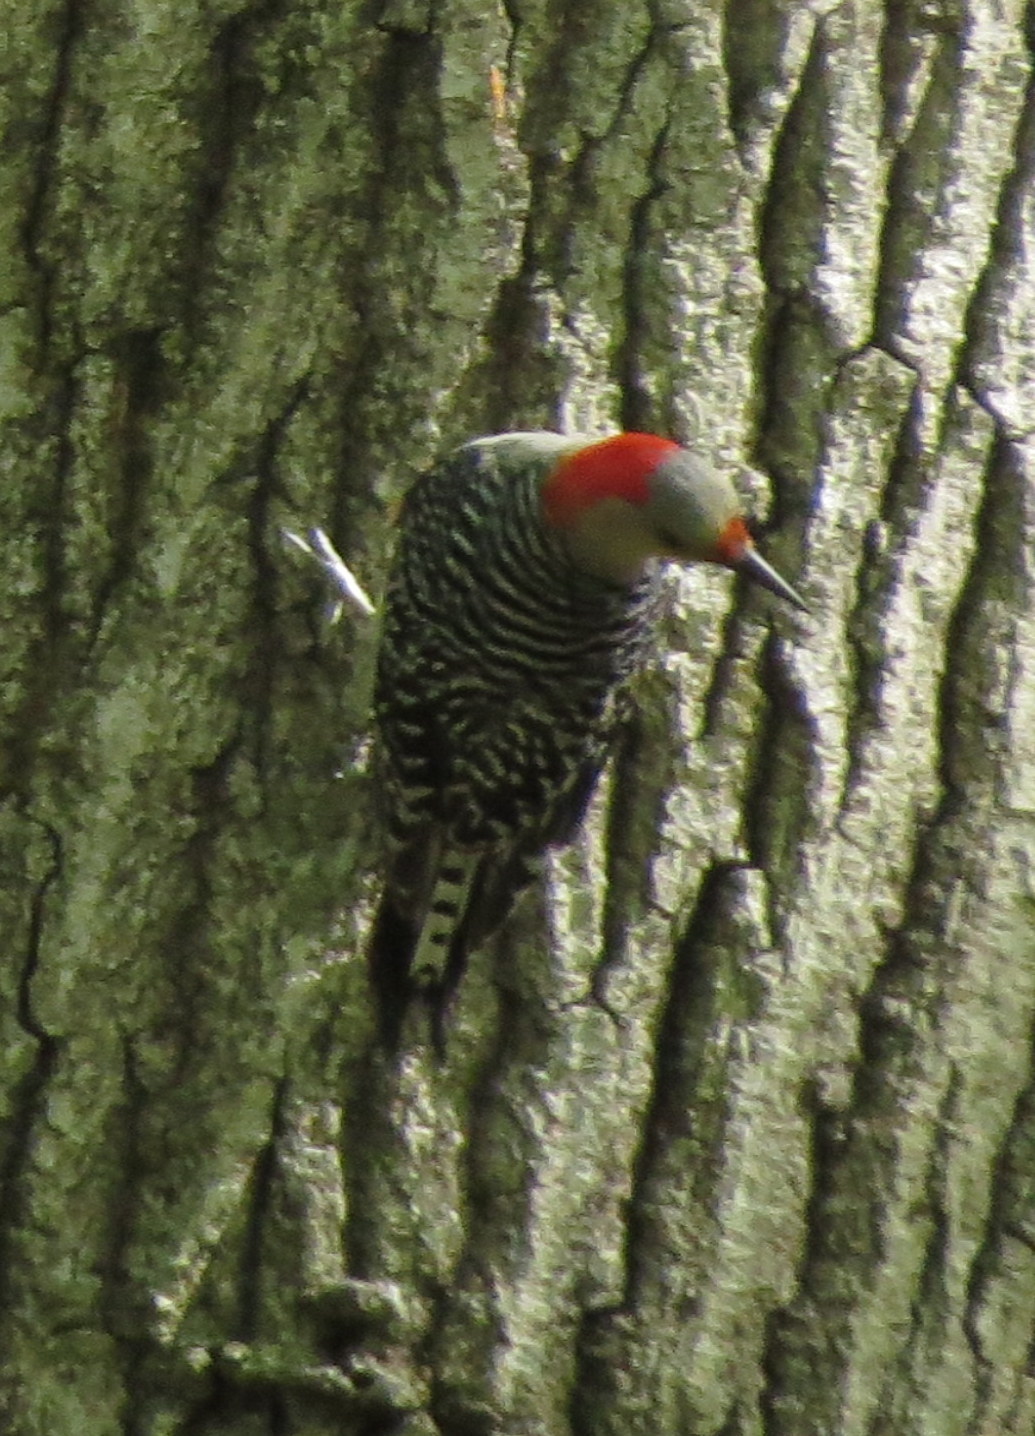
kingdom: Animalia
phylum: Chordata
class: Aves
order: Piciformes
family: Picidae
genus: Melanerpes
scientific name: Melanerpes carolinus
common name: Red-bellied woodpecker
